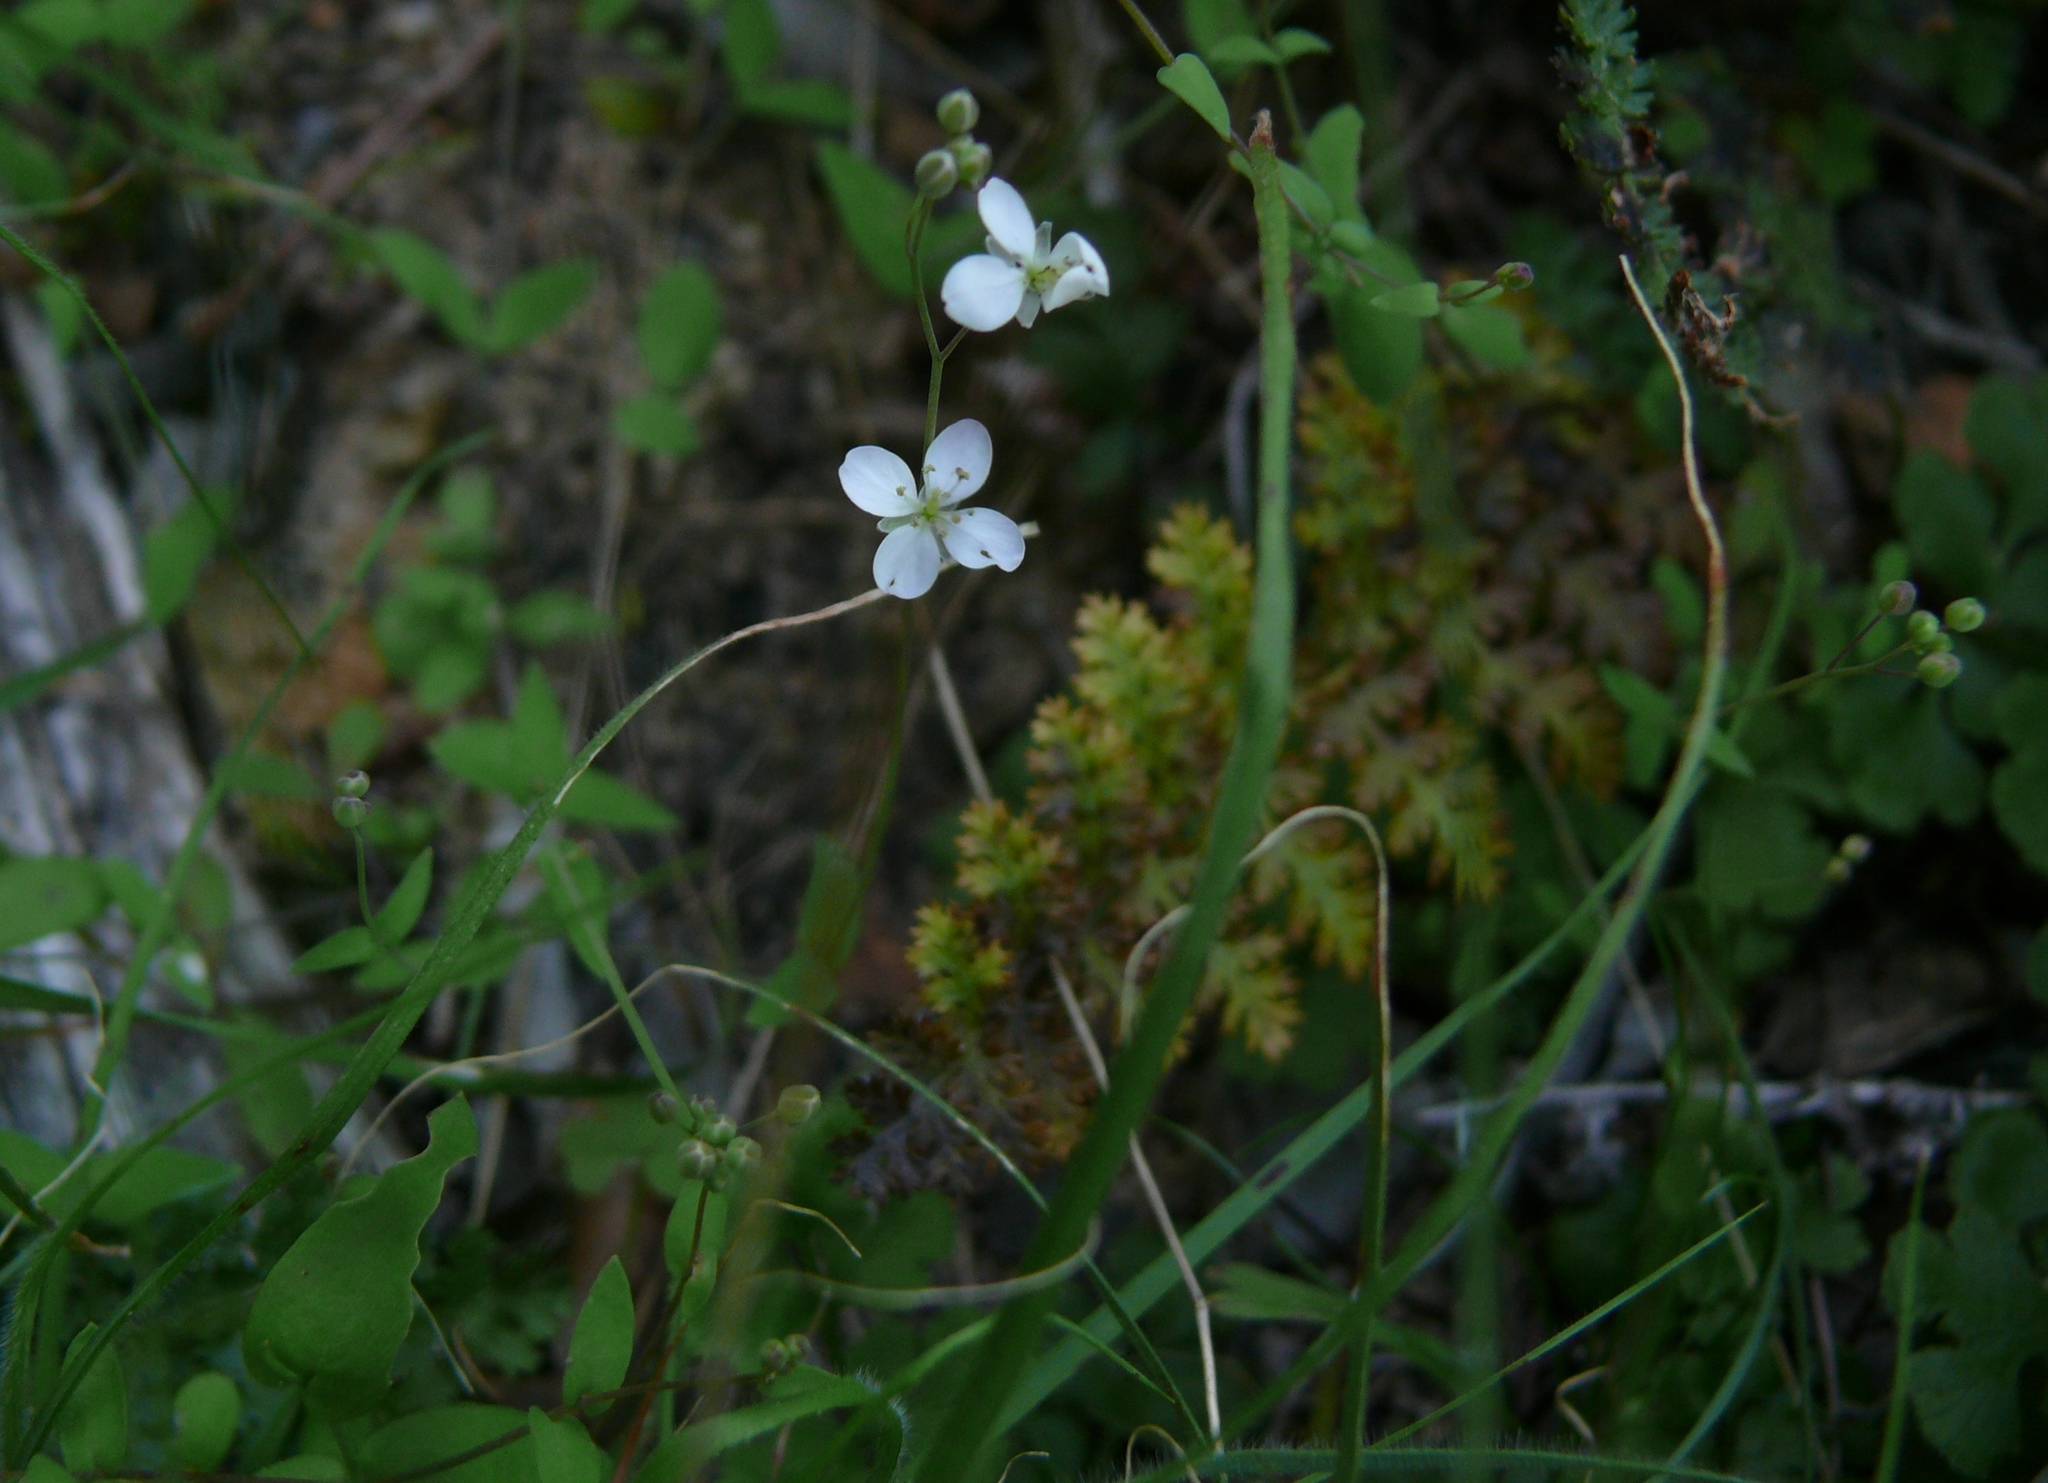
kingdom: Plantae
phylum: Tracheophyta
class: Magnoliopsida
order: Brassicales
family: Brassicaceae
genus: Heliophila
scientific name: Heliophila amplexicaulis
